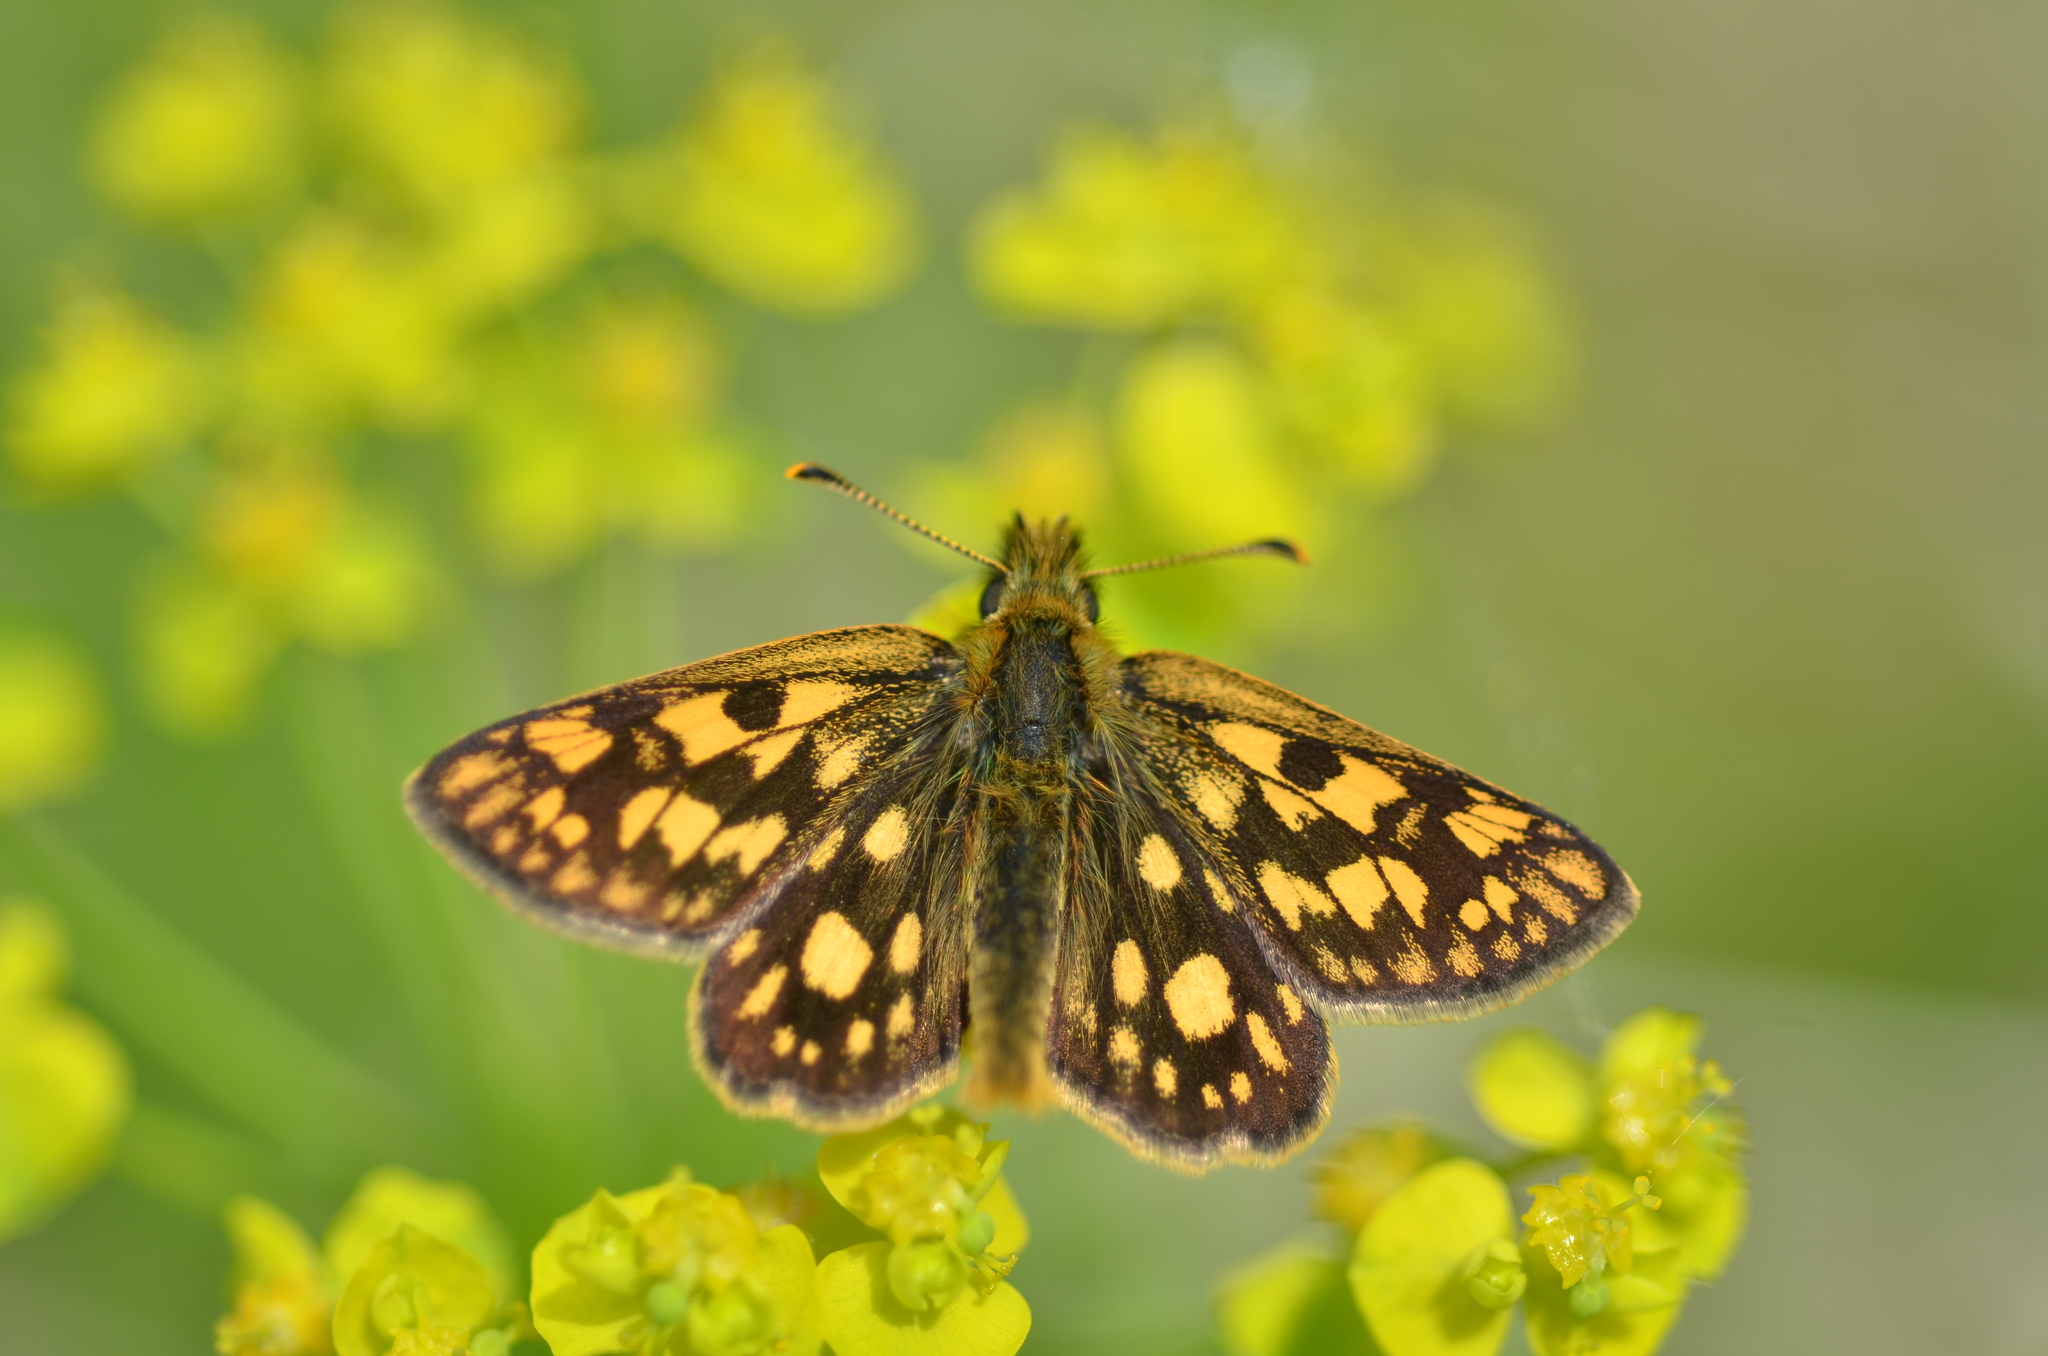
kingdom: Animalia
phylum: Arthropoda
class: Insecta
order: Lepidoptera
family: Hesperiidae
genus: Carterocephalus
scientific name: Carterocephalus palaemon
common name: Chequered skipper
